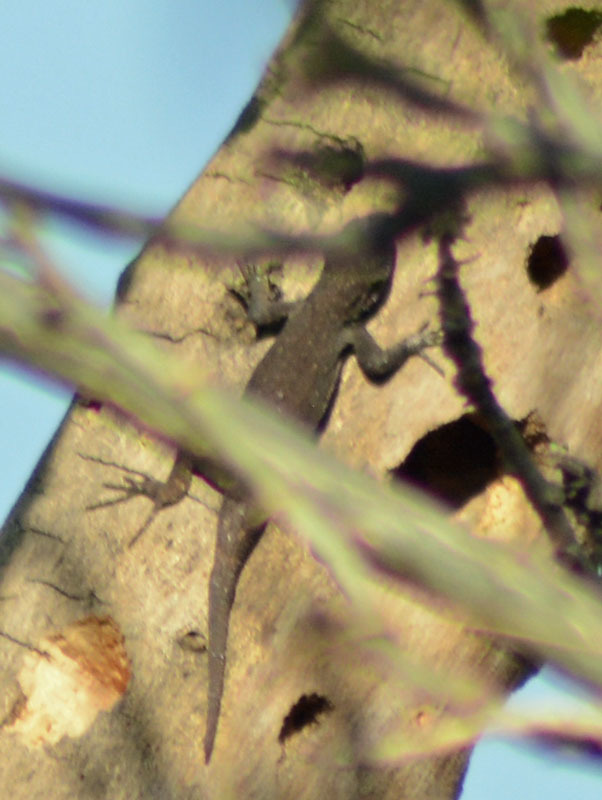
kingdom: Animalia
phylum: Chordata
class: Squamata
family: Phrynosomatidae
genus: Sceloporus
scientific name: Sceloporus grammicus
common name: Mesquite lizard
